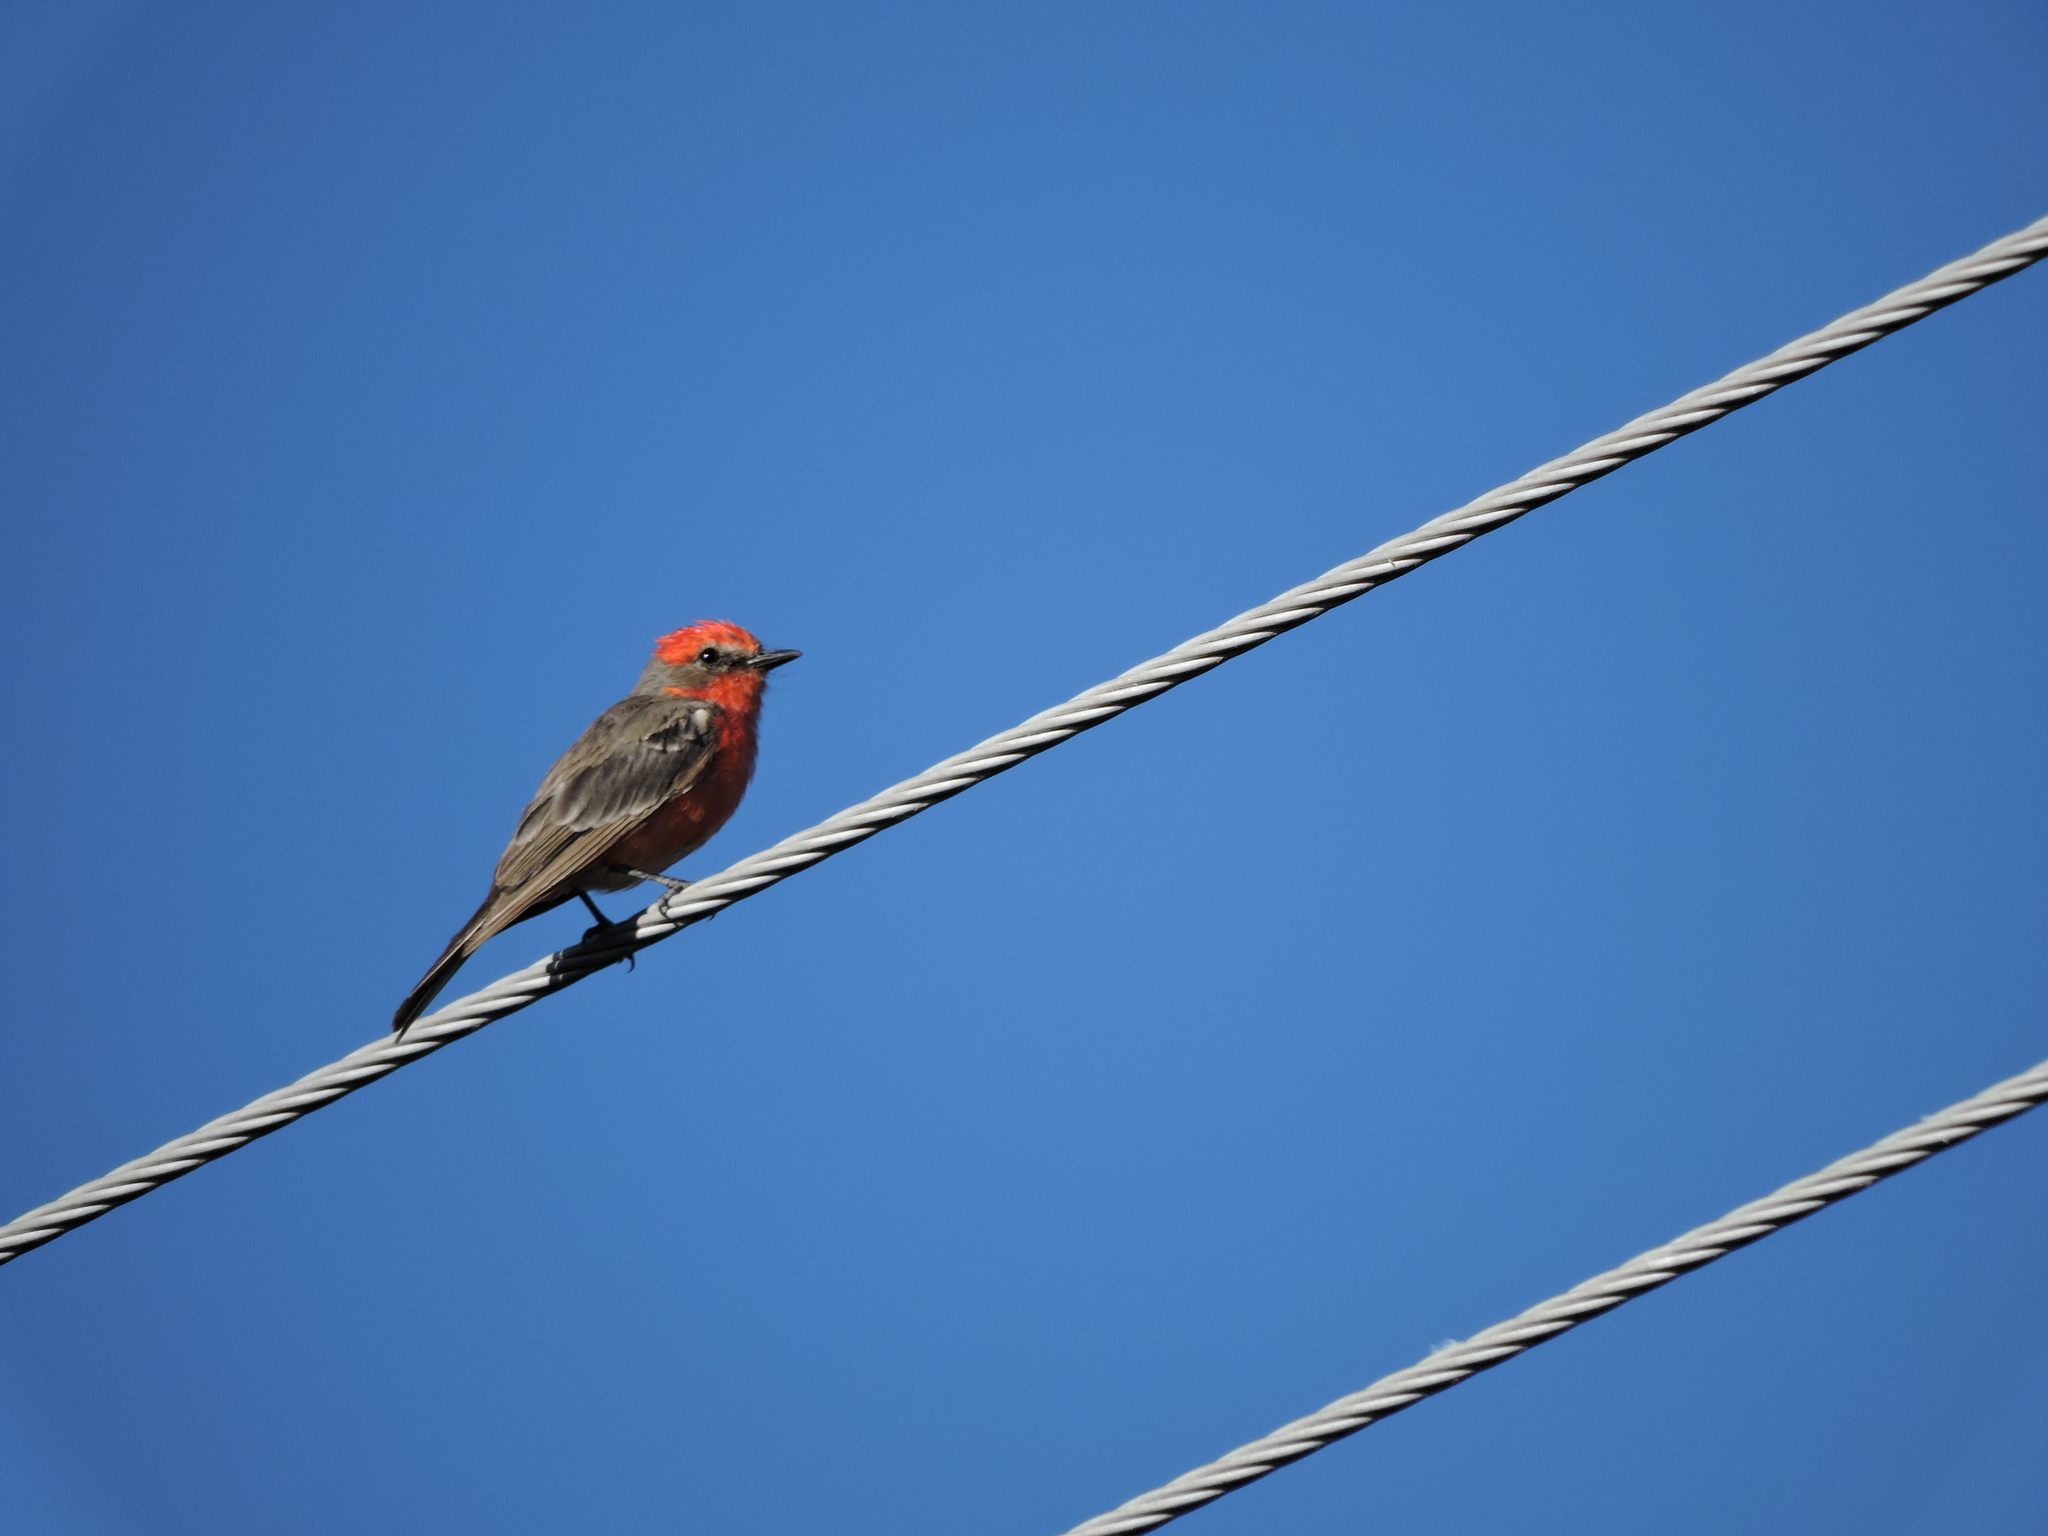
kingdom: Animalia
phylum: Chordata
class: Aves
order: Passeriformes
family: Tyrannidae
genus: Pyrocephalus
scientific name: Pyrocephalus rubinus
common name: Vermilion flycatcher
